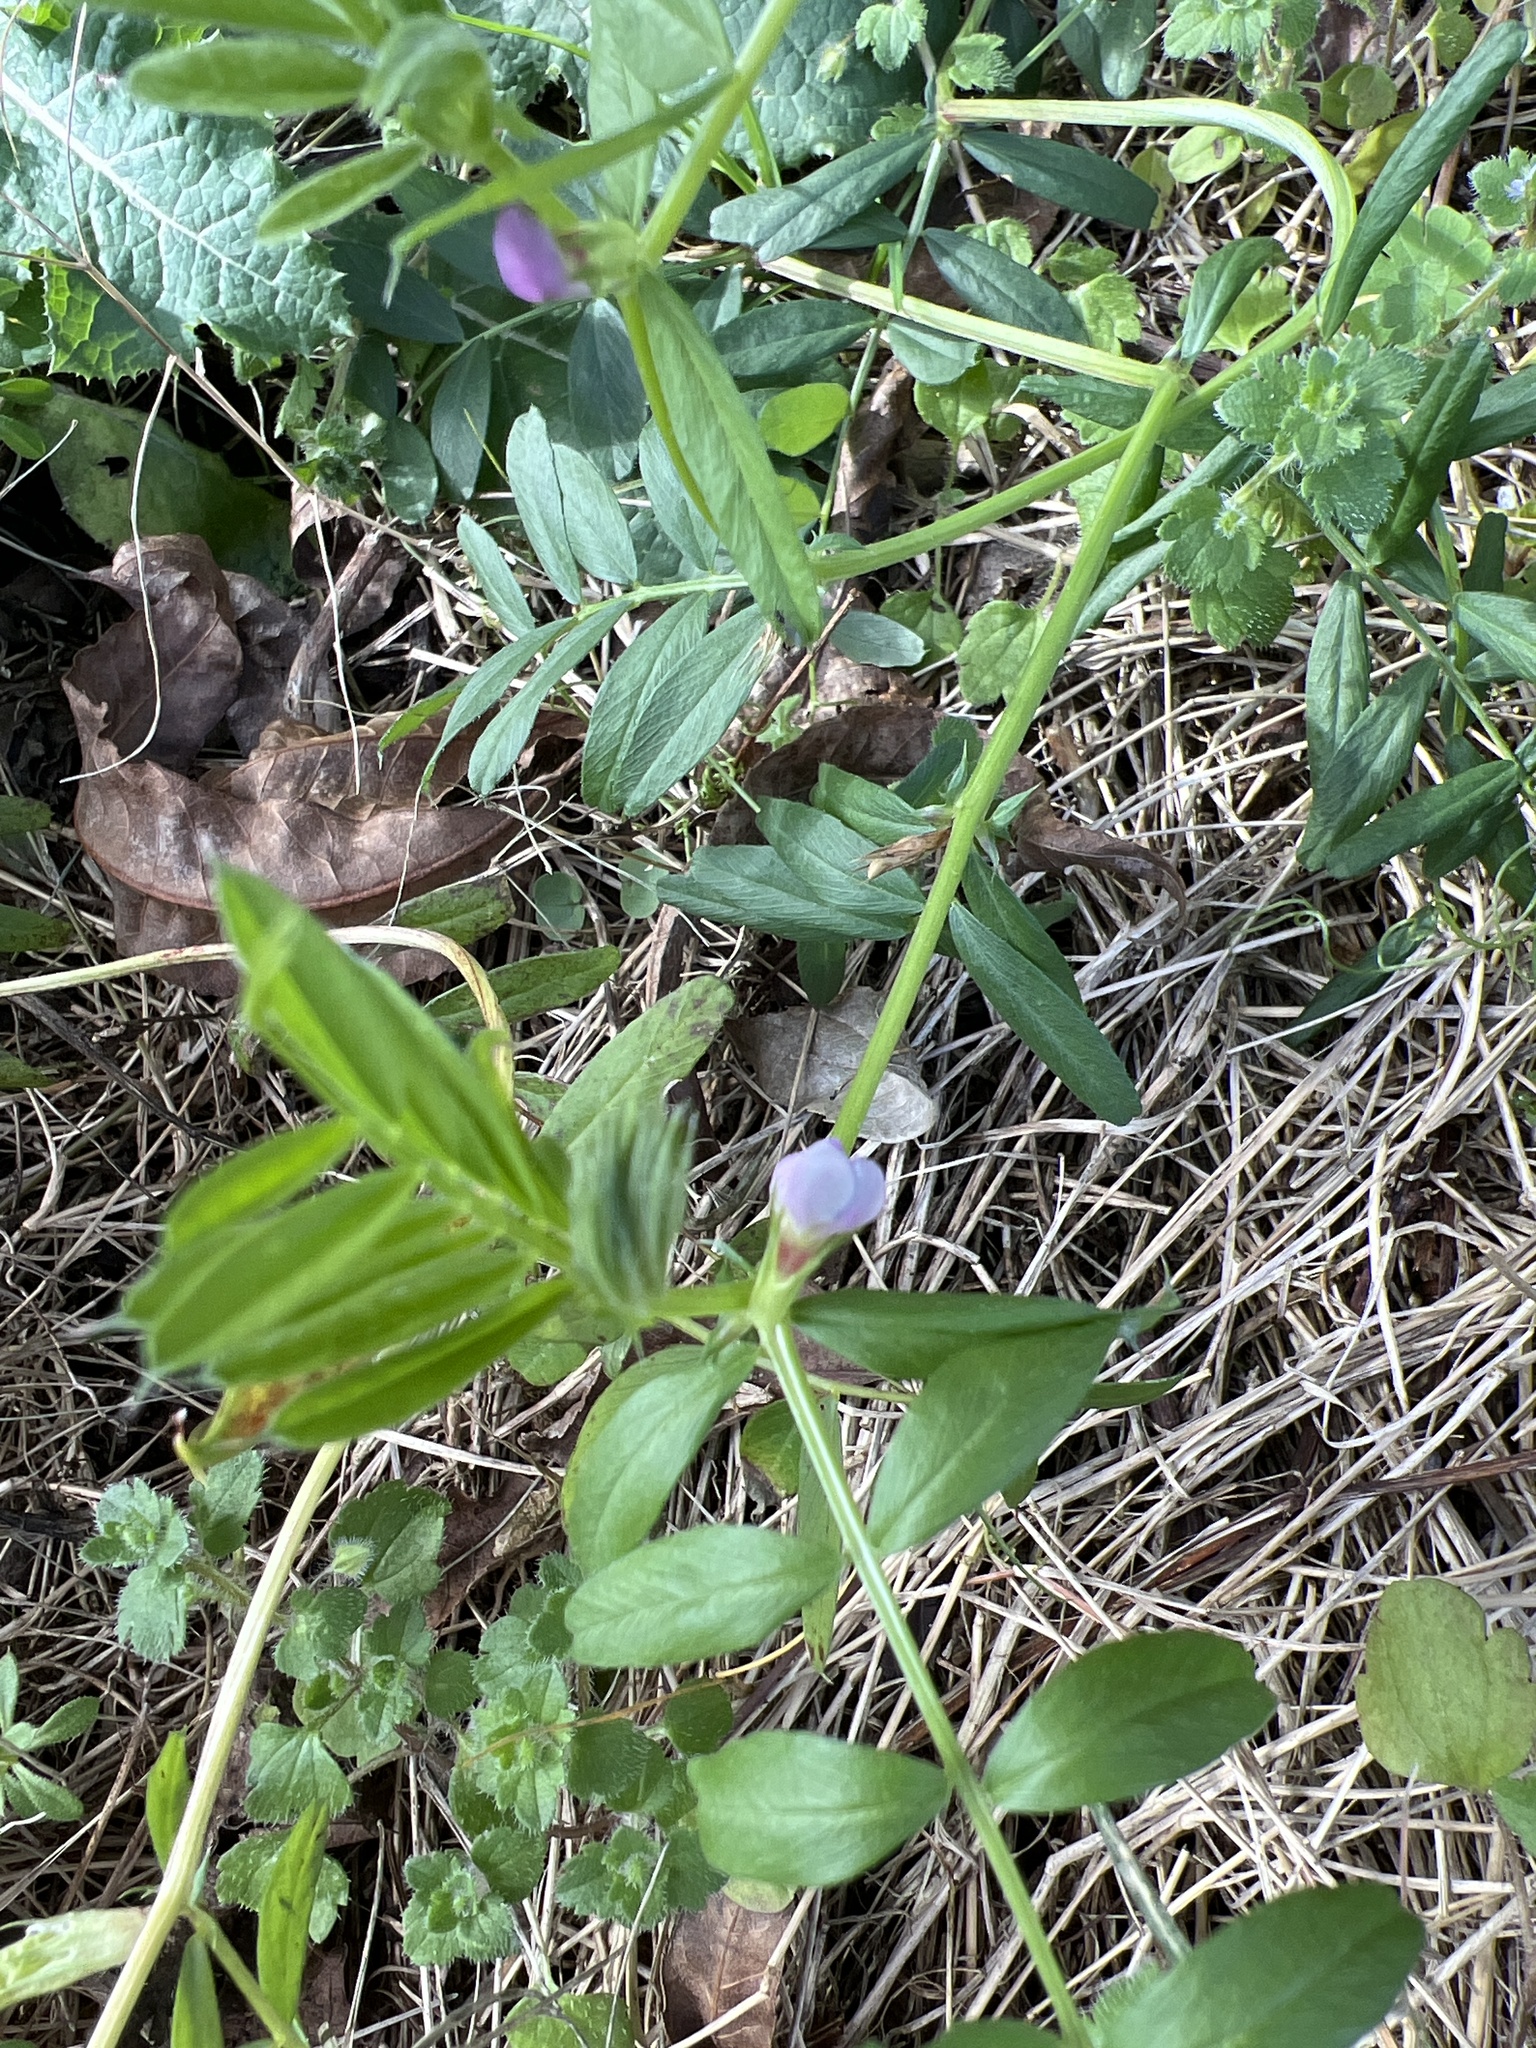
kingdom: Plantae
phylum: Tracheophyta
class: Magnoliopsida
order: Fabales
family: Fabaceae
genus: Vicia
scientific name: Vicia sativa
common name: Garden vetch
